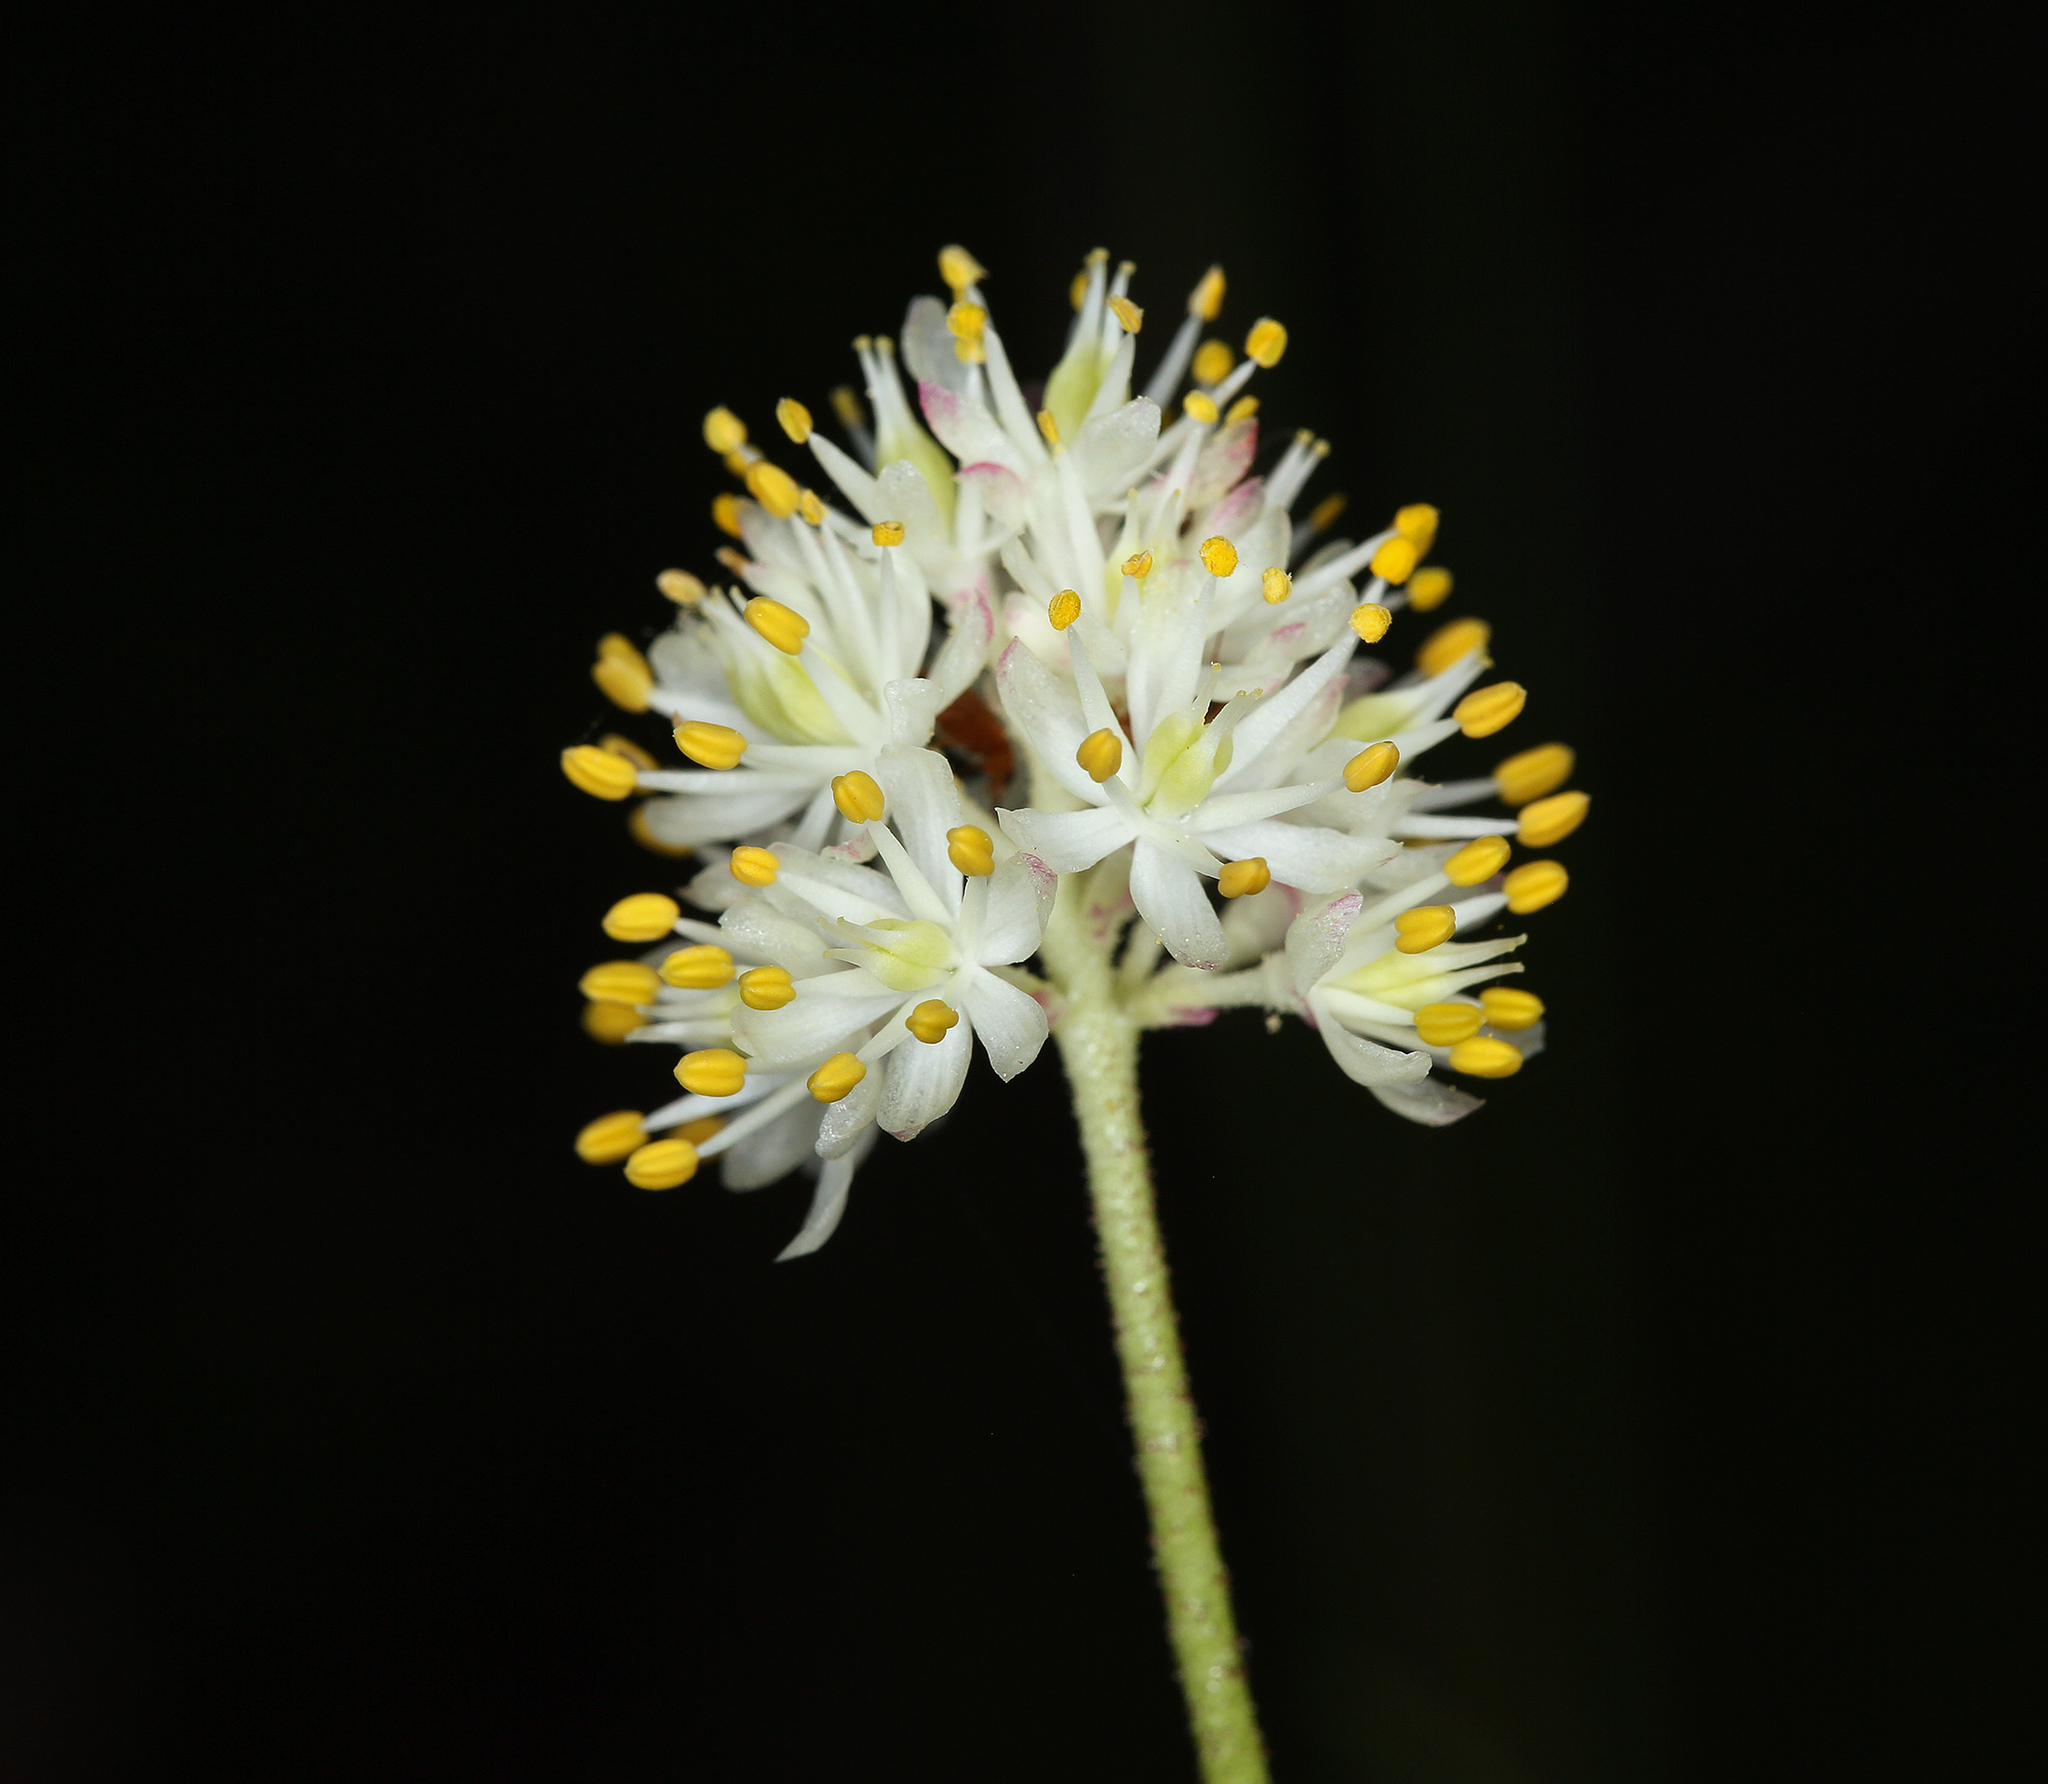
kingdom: Plantae
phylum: Tracheophyta
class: Liliopsida
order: Alismatales
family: Tofieldiaceae
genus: Triantha
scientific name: Triantha occidentalis
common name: Western false asphodel
